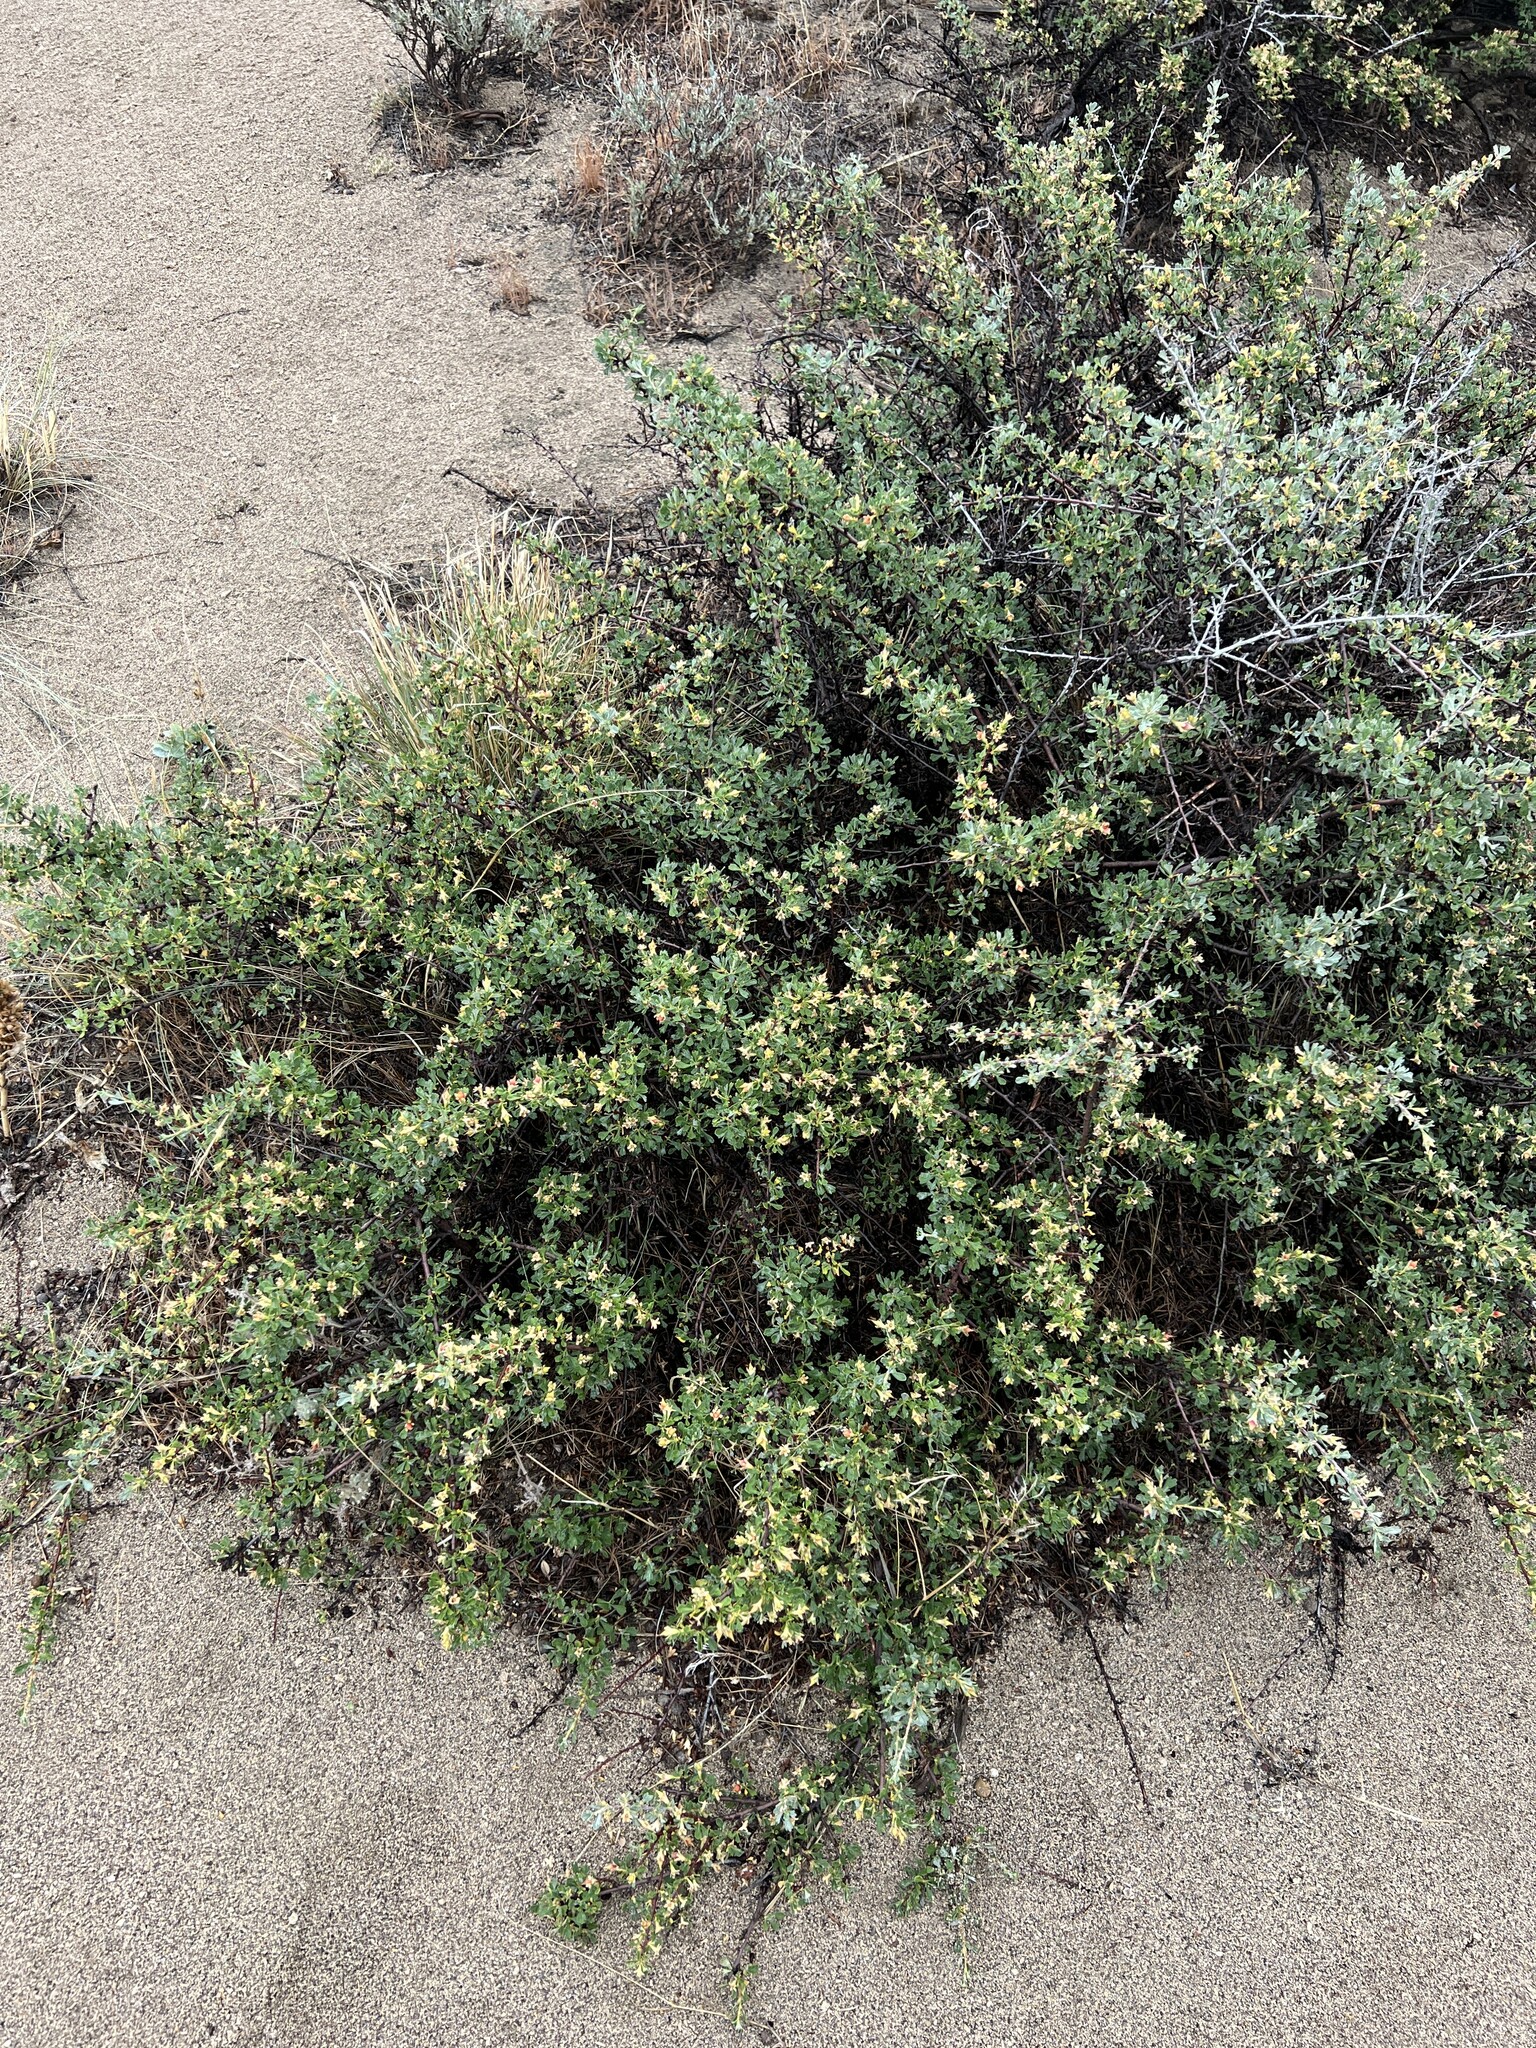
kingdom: Plantae
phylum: Tracheophyta
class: Magnoliopsida
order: Rosales
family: Rosaceae
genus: Purshia
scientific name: Purshia tridentata
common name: Antelope bitterbrush
